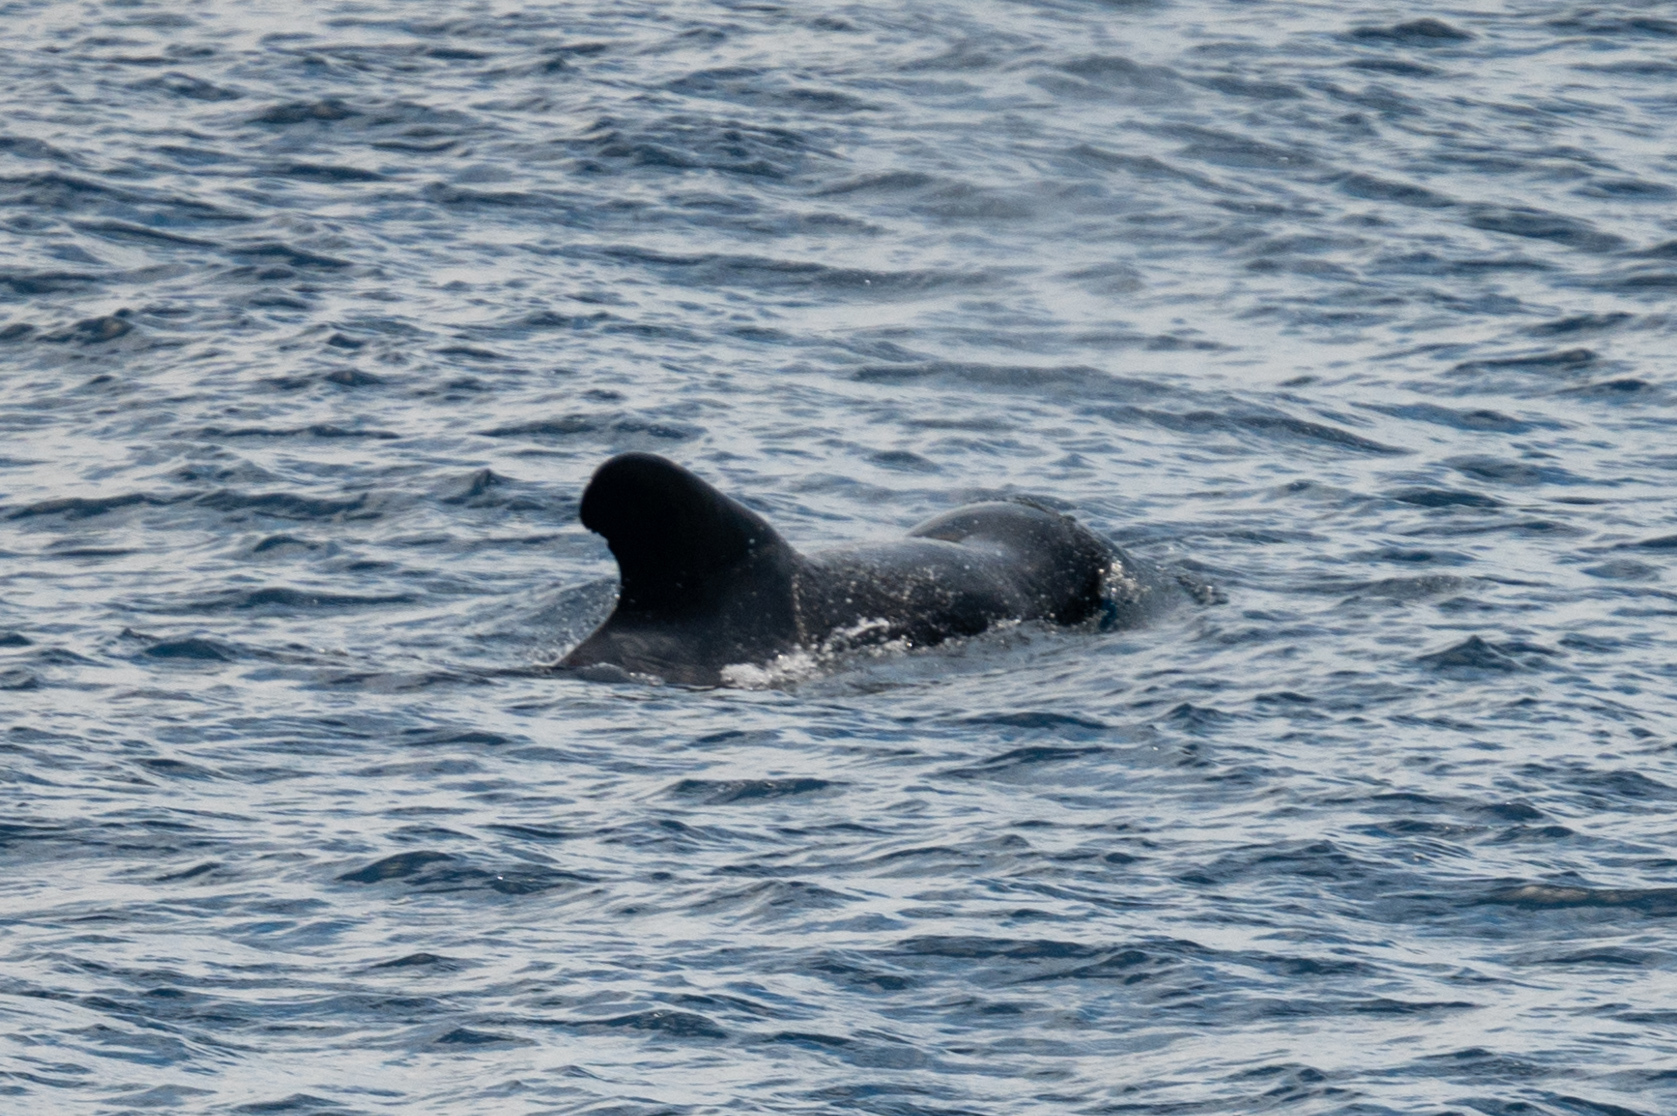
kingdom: Animalia
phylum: Chordata
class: Mammalia
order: Cetacea
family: Delphinidae
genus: Globicephala
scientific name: Globicephala macrorhynchus
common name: Short-finned pilot whale
